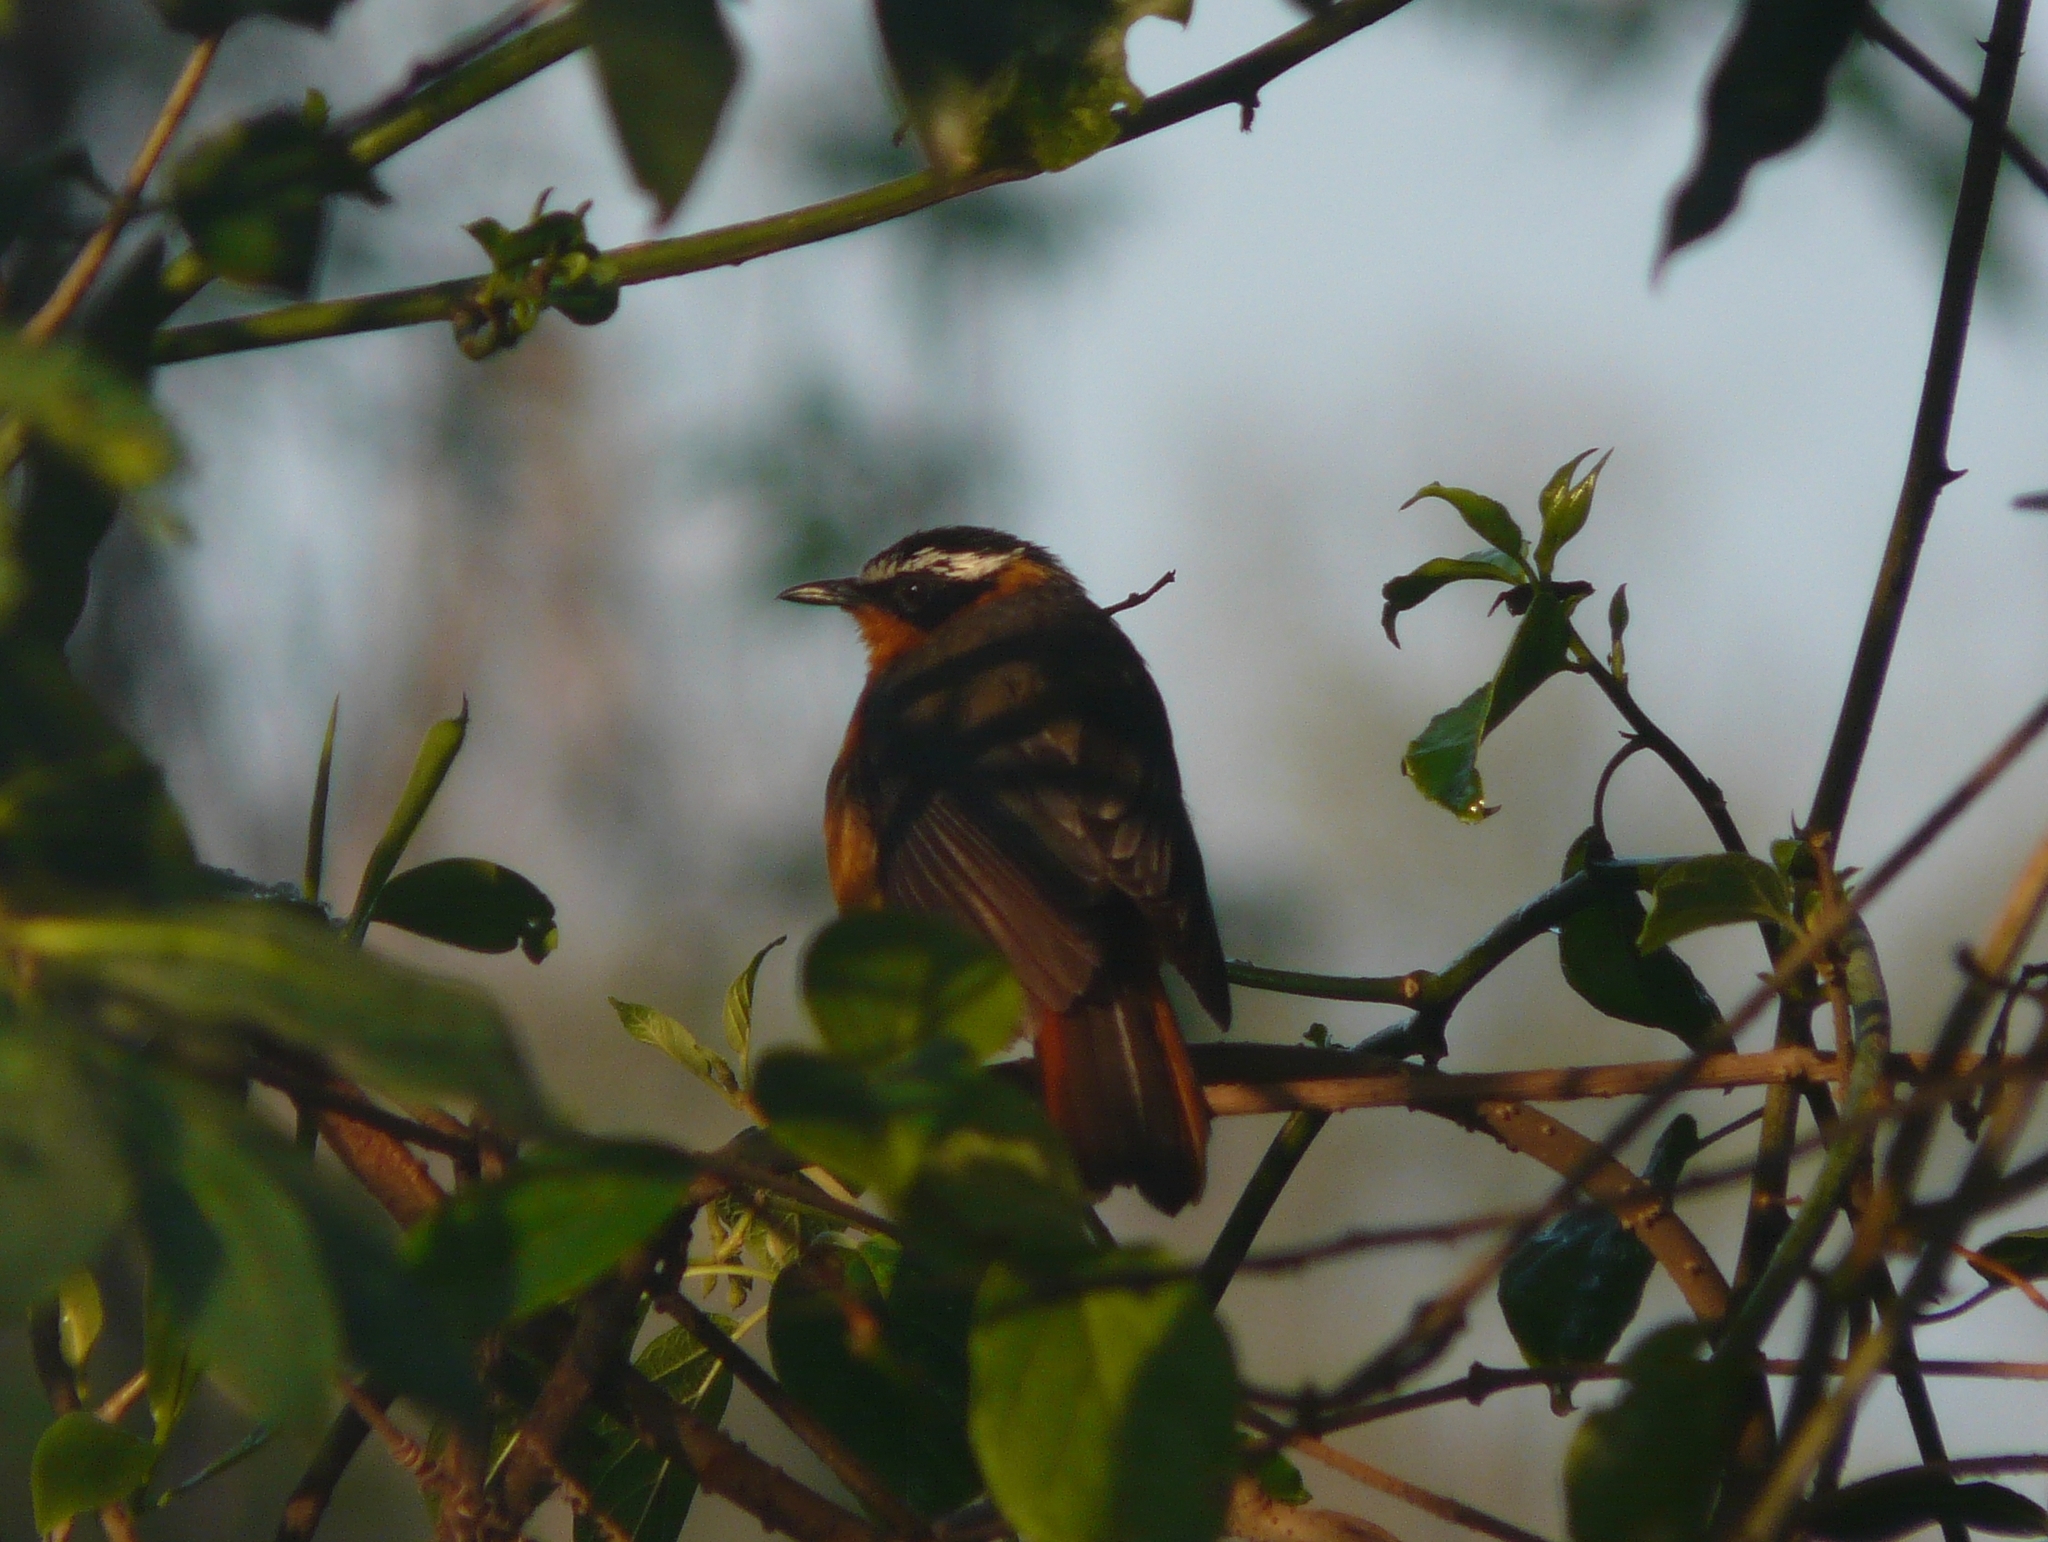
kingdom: Animalia
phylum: Chordata
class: Aves
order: Passeriformes
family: Muscicapidae
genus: Cossypha
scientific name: Cossypha heuglini
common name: White-browed robin-chat
